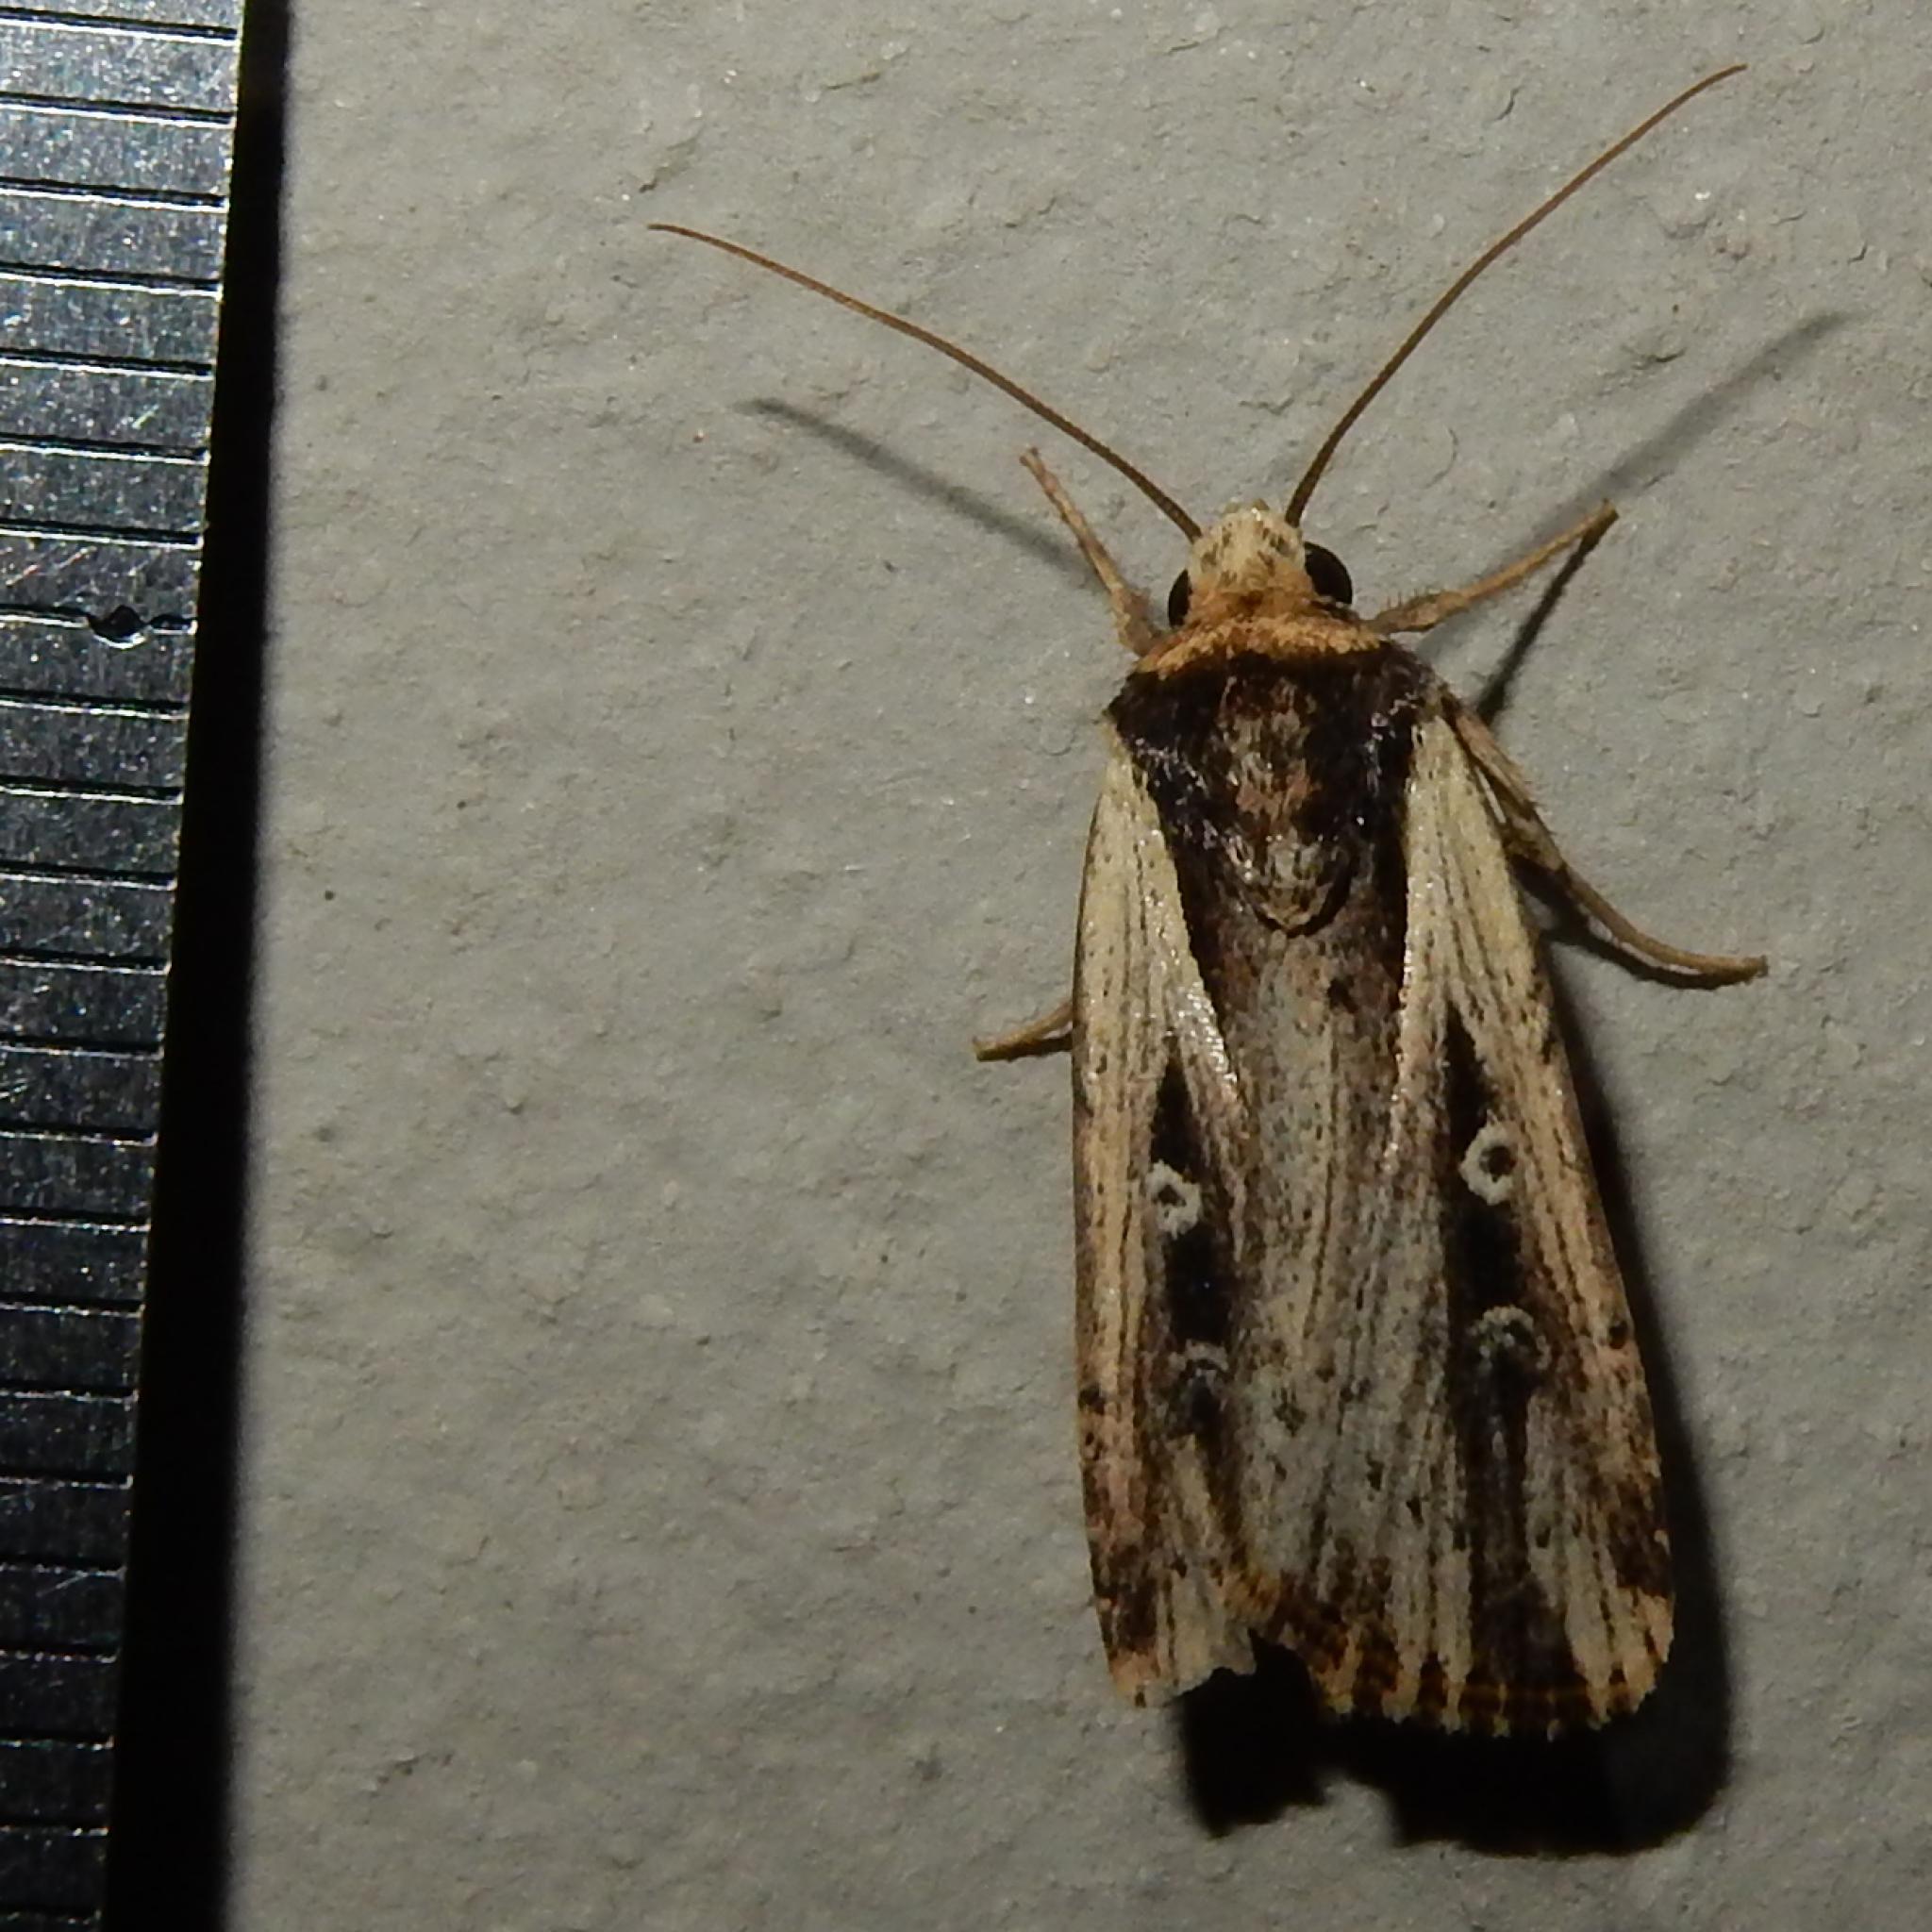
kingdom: Animalia
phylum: Arthropoda
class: Insecta
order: Lepidoptera
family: Noctuidae
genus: Axylia
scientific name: Axylia annularis
